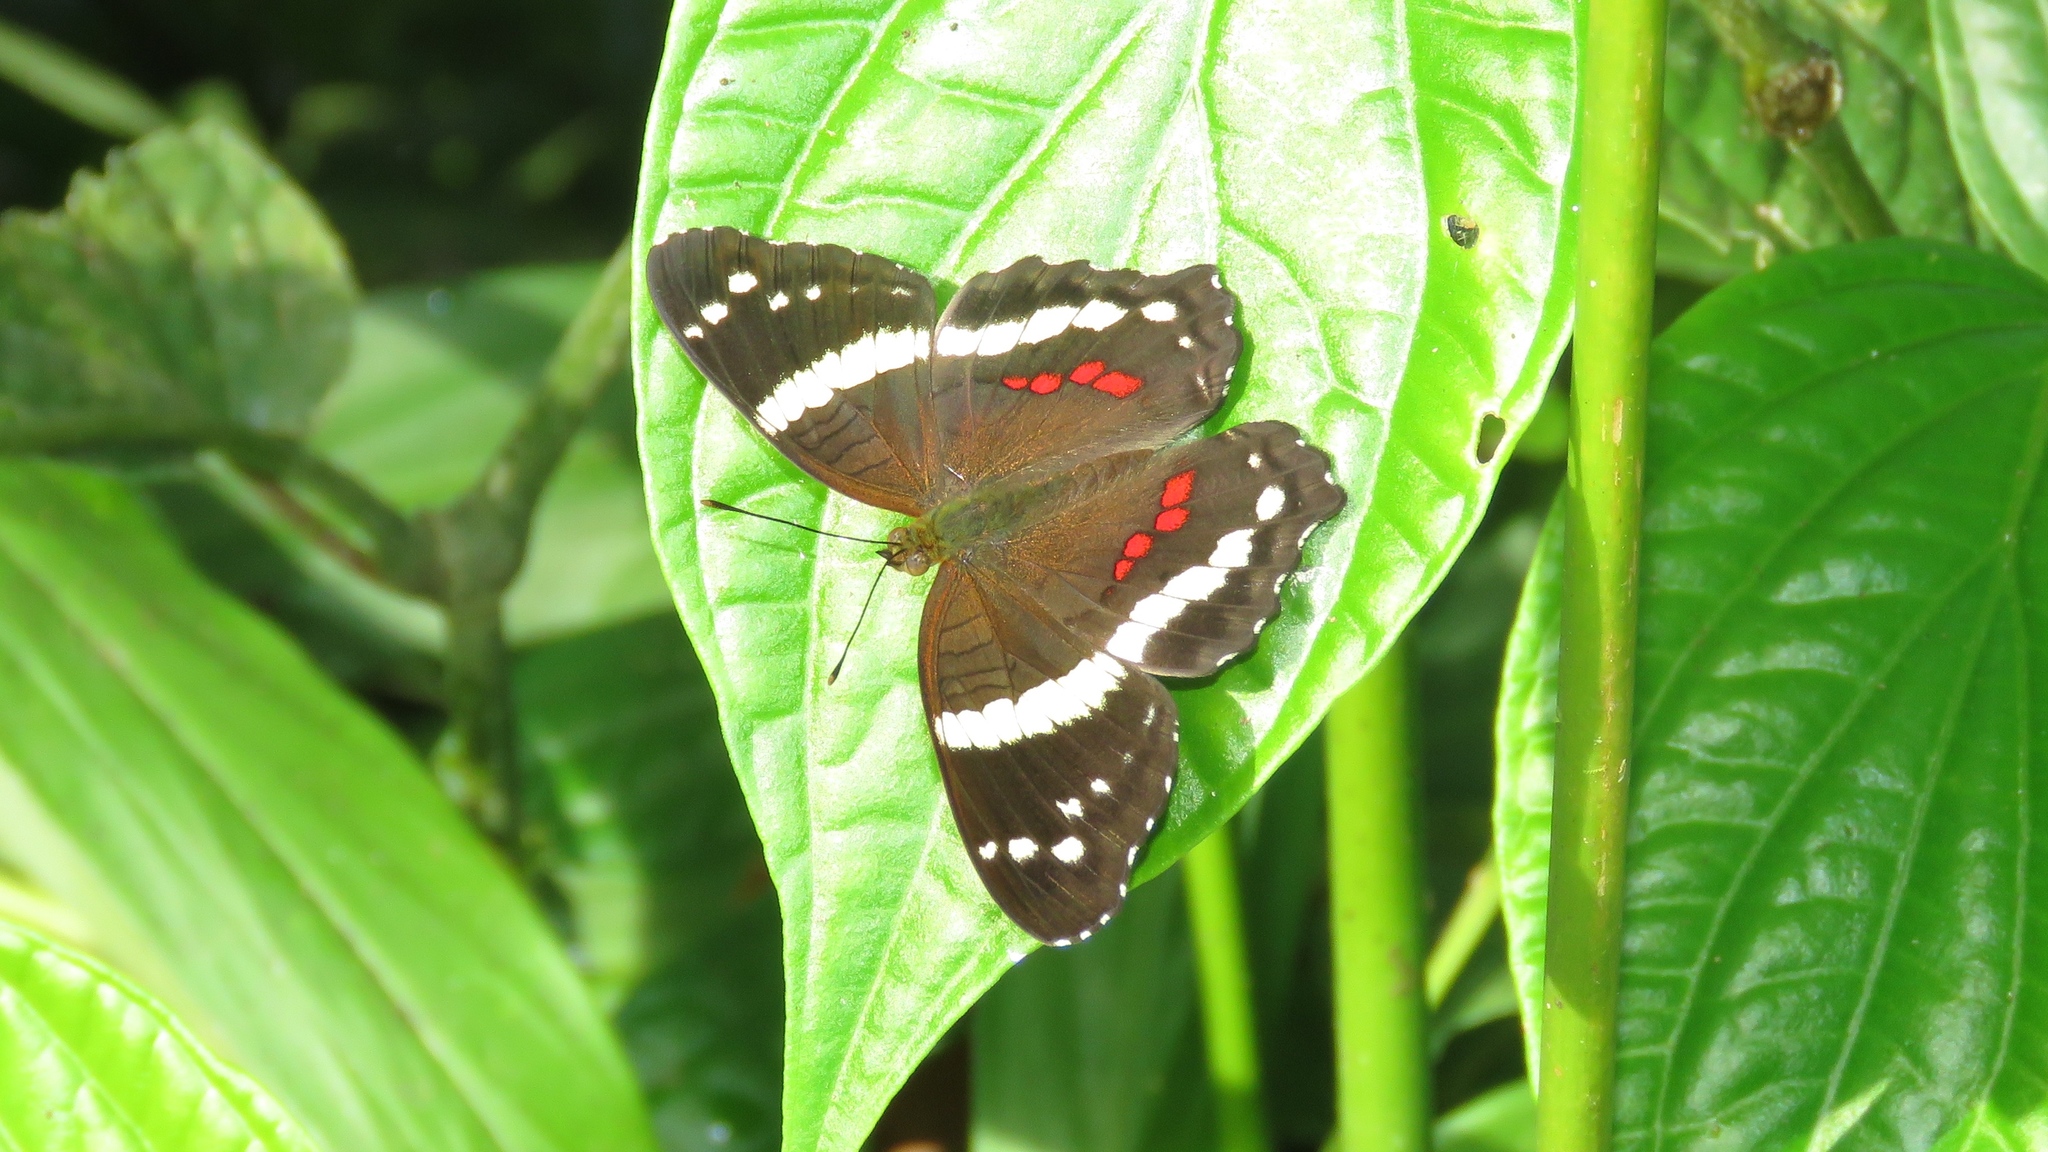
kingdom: Animalia
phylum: Arthropoda
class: Insecta
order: Lepidoptera
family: Nymphalidae
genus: Anartia
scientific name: Anartia fatima
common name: Banded peacock
